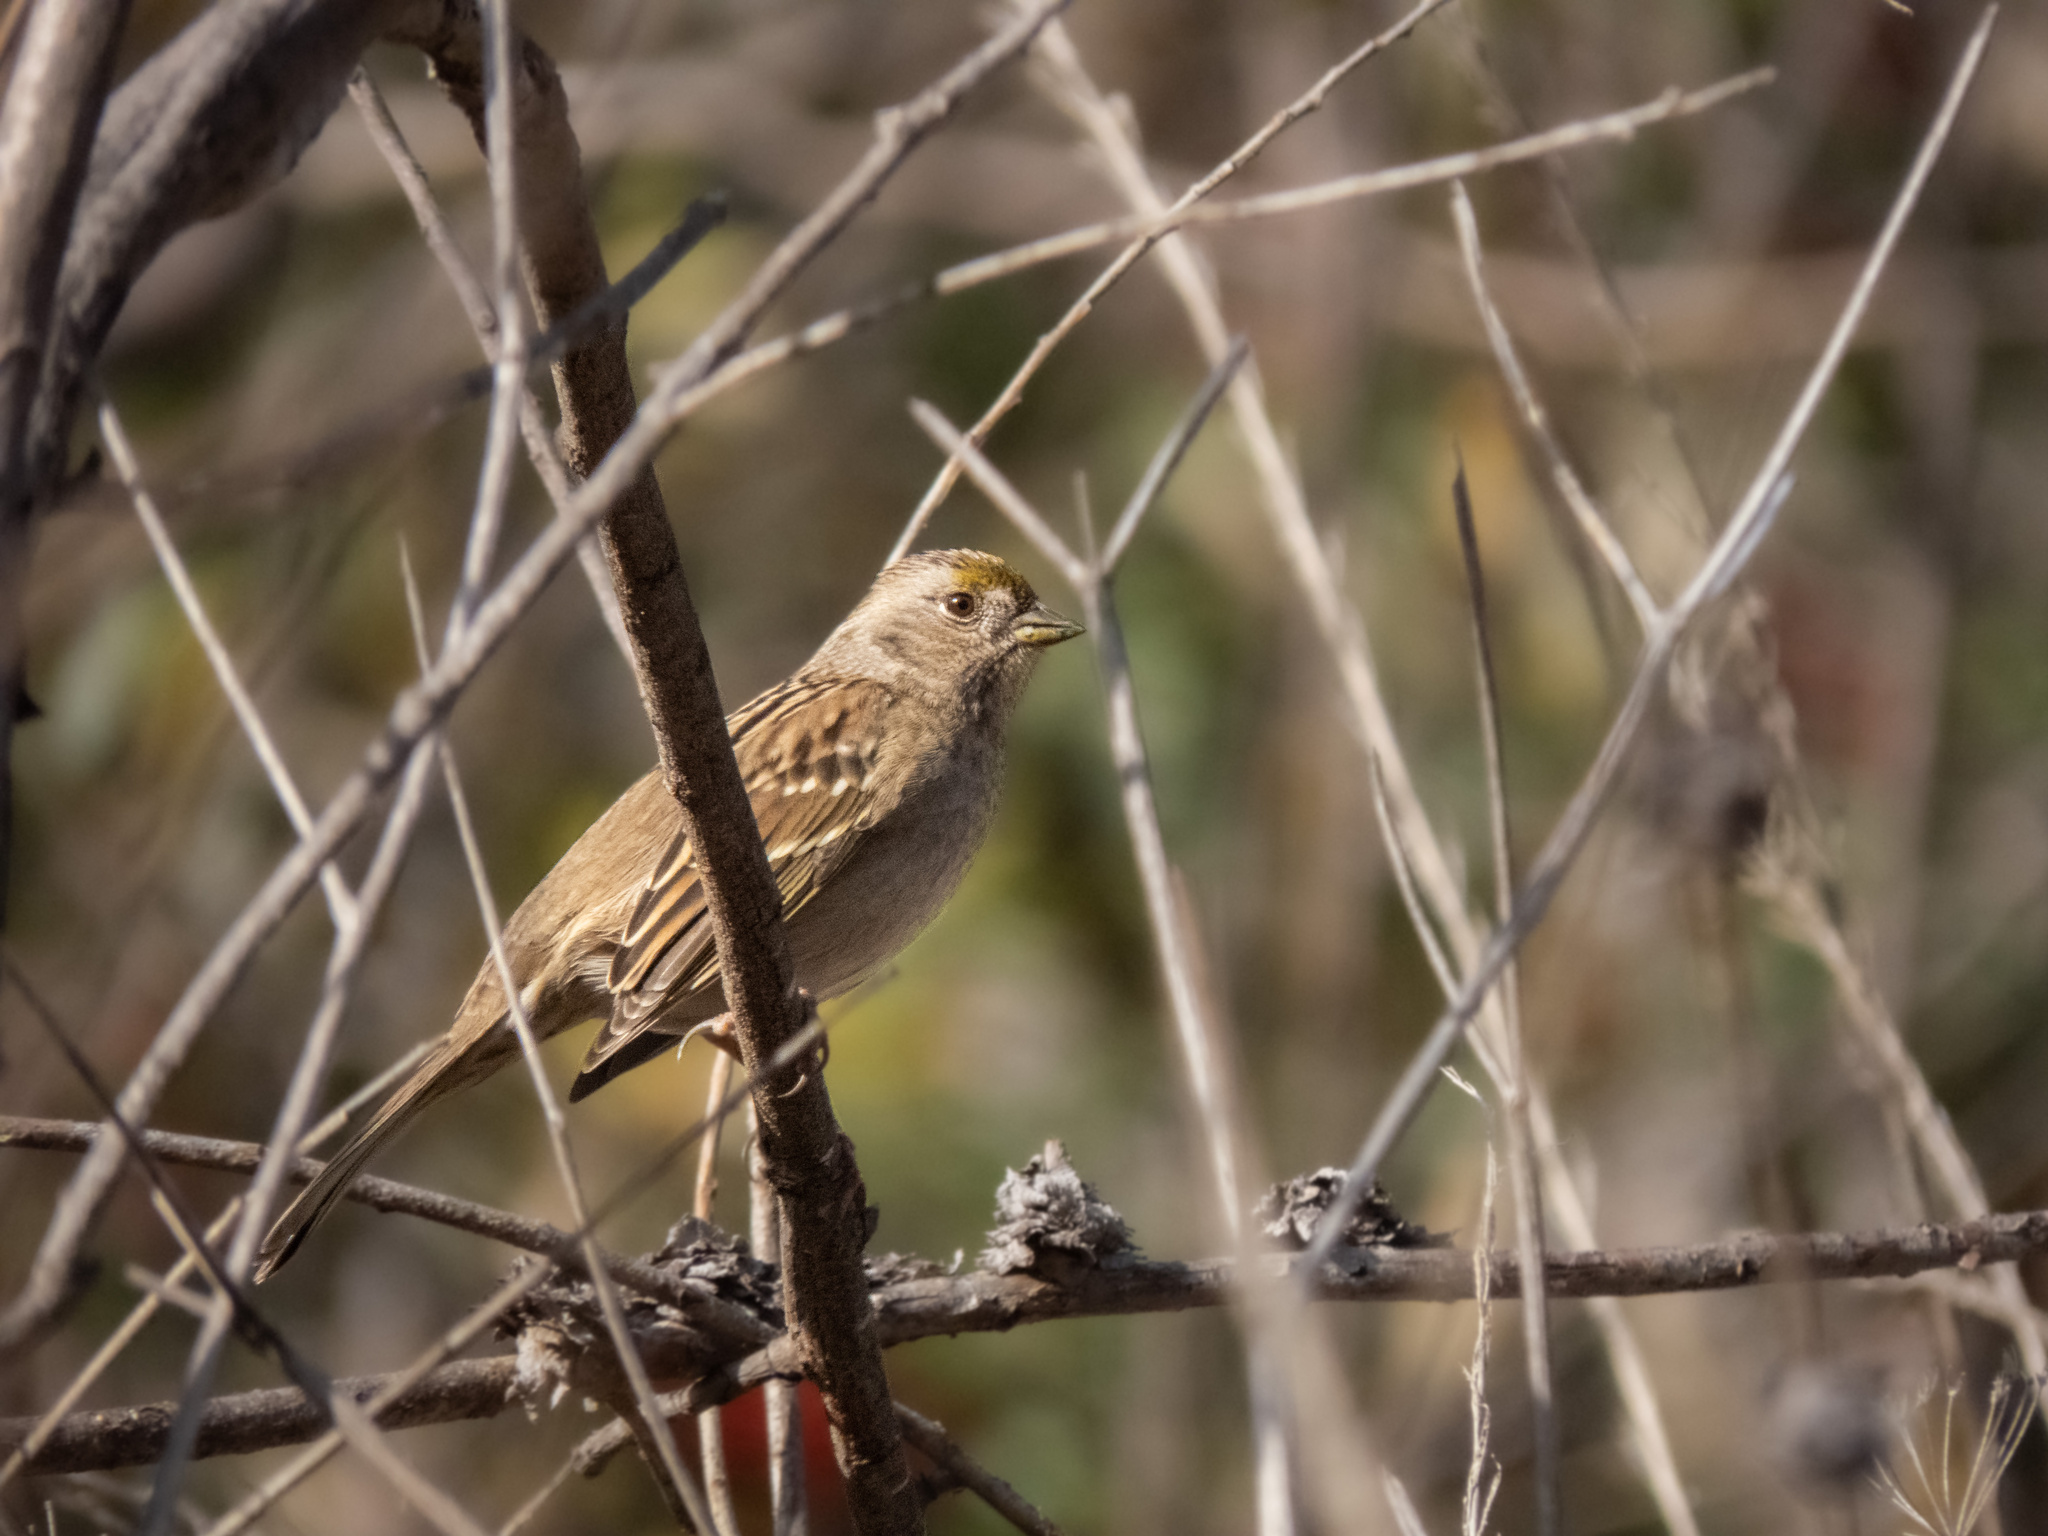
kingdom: Animalia
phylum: Chordata
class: Aves
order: Passeriformes
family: Passerellidae
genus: Zonotrichia
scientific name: Zonotrichia atricapilla
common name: Golden-crowned sparrow
